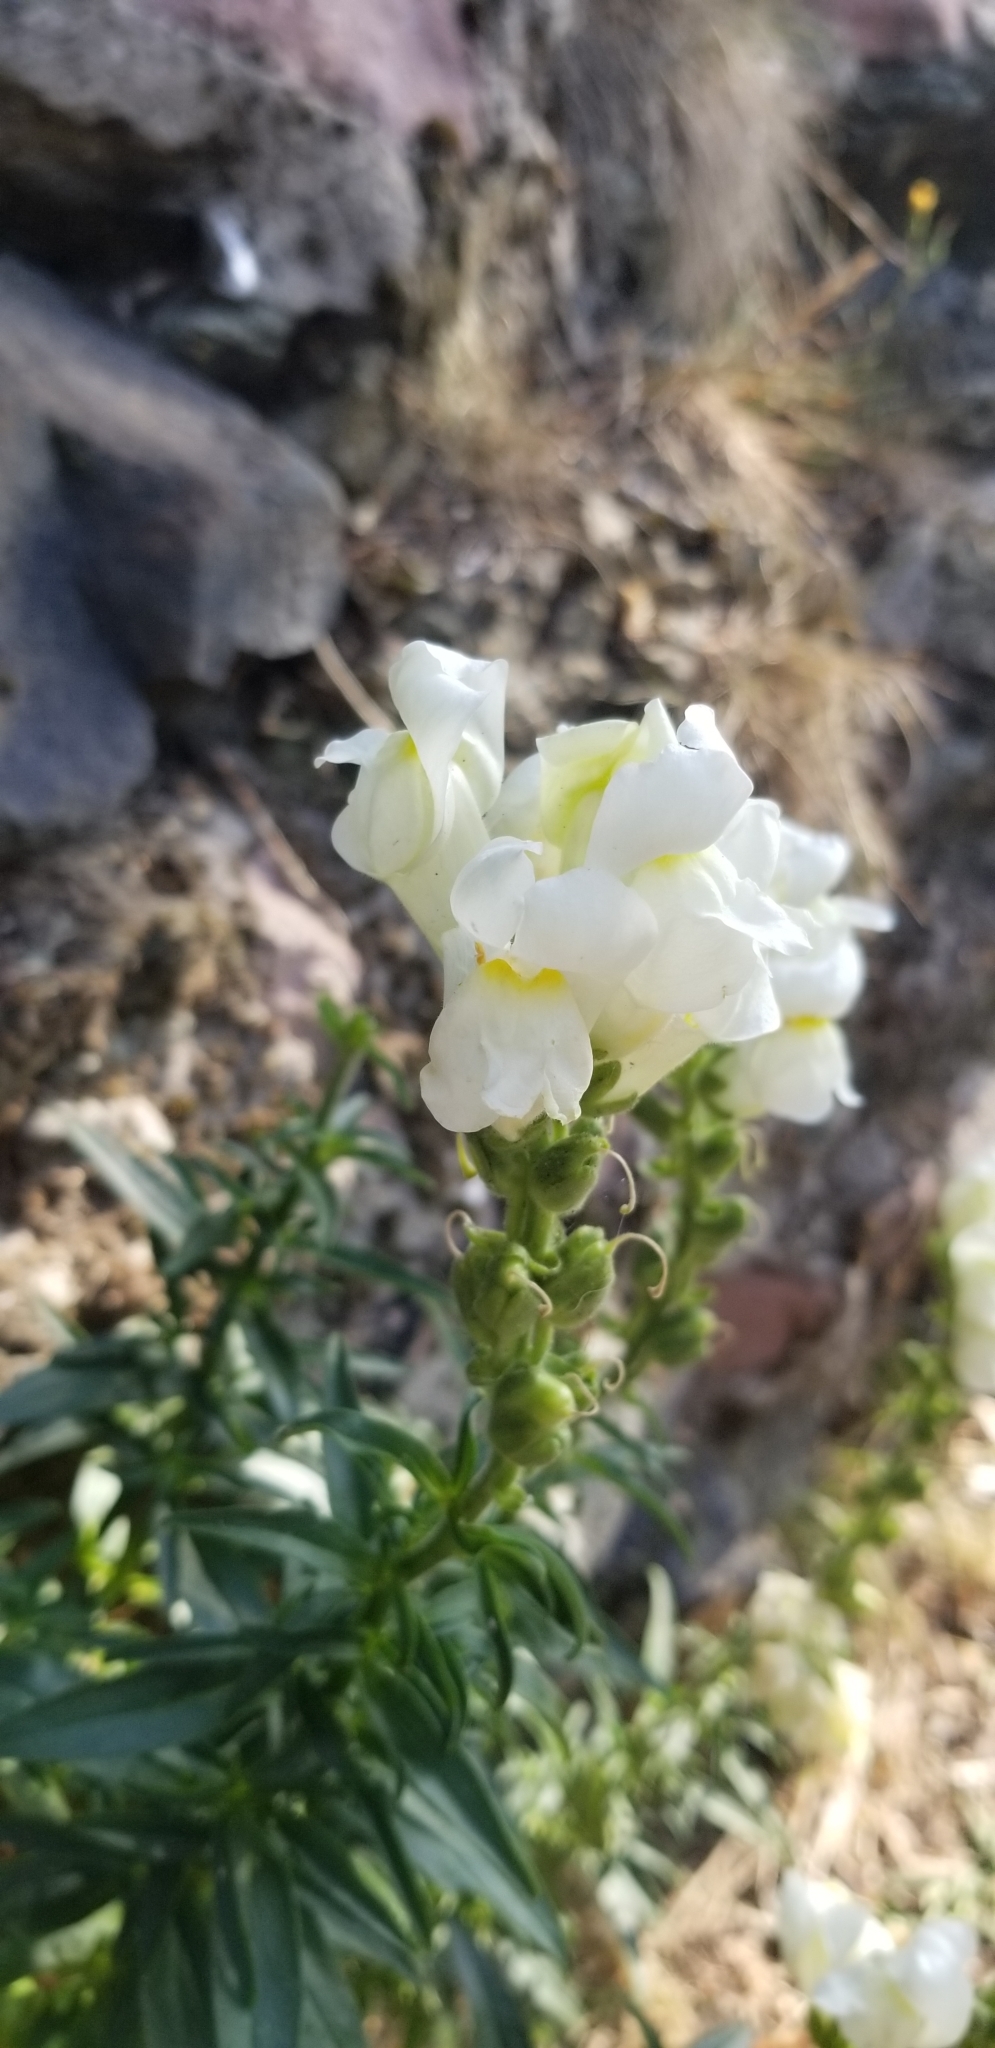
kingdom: Plantae
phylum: Tracheophyta
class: Magnoliopsida
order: Lamiales
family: Plantaginaceae
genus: Antirrhinum
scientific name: Antirrhinum majus
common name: Snapdragon
